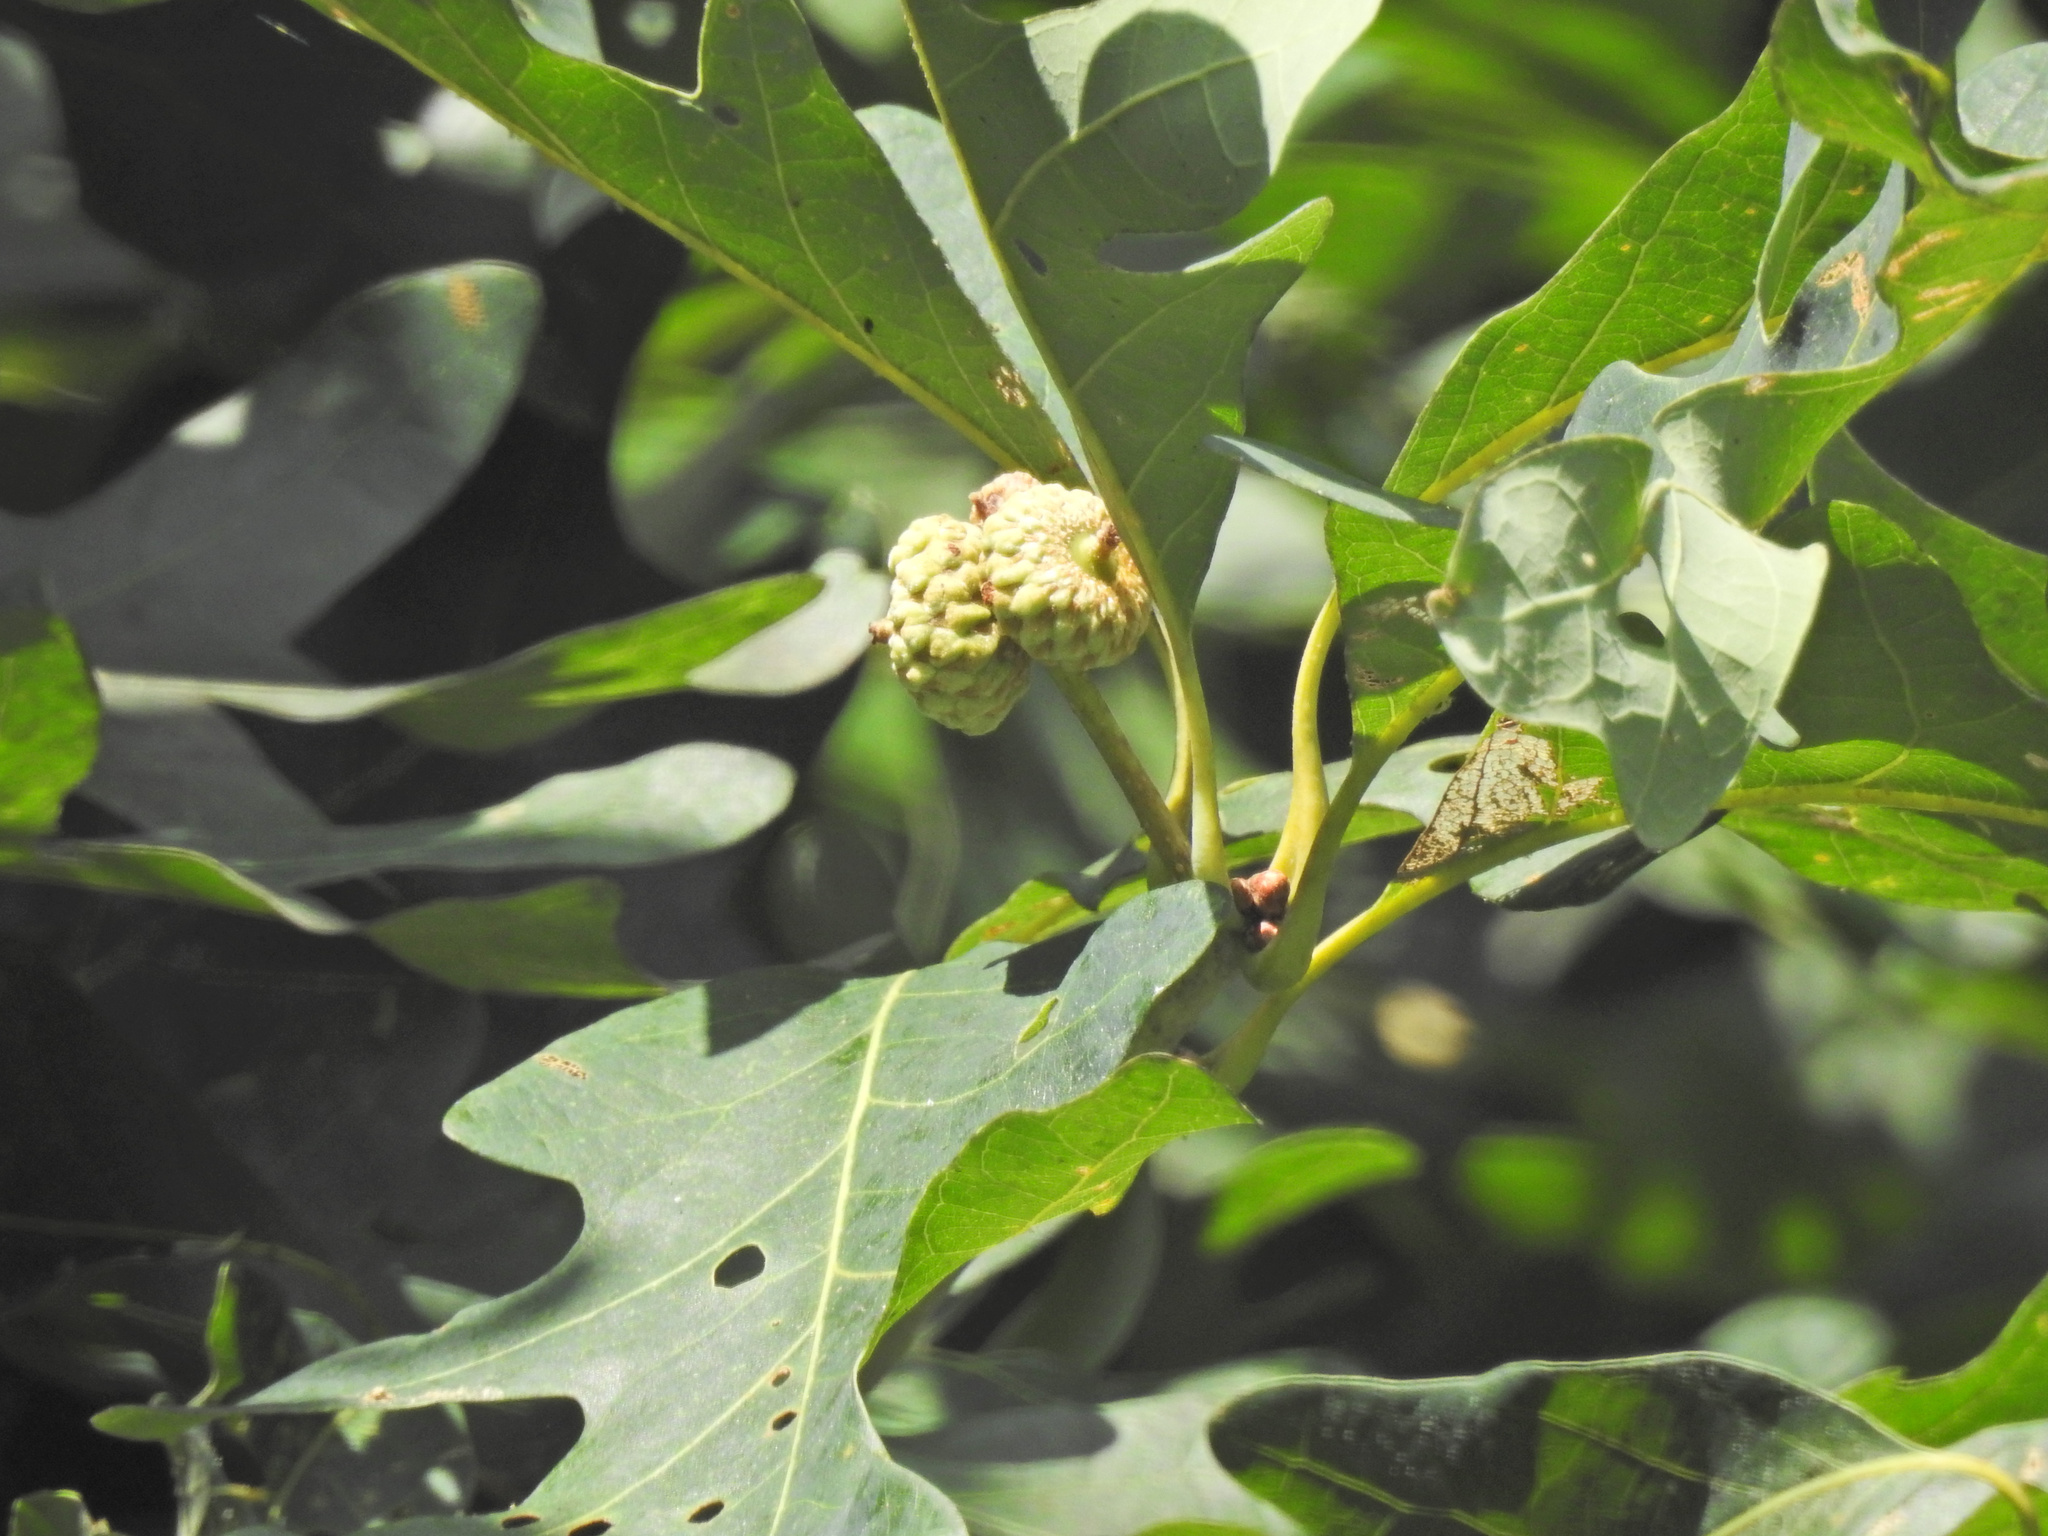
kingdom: Plantae
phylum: Tracheophyta
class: Magnoliopsida
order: Fagales
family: Fagaceae
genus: Quercus
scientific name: Quercus alba
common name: White oak
